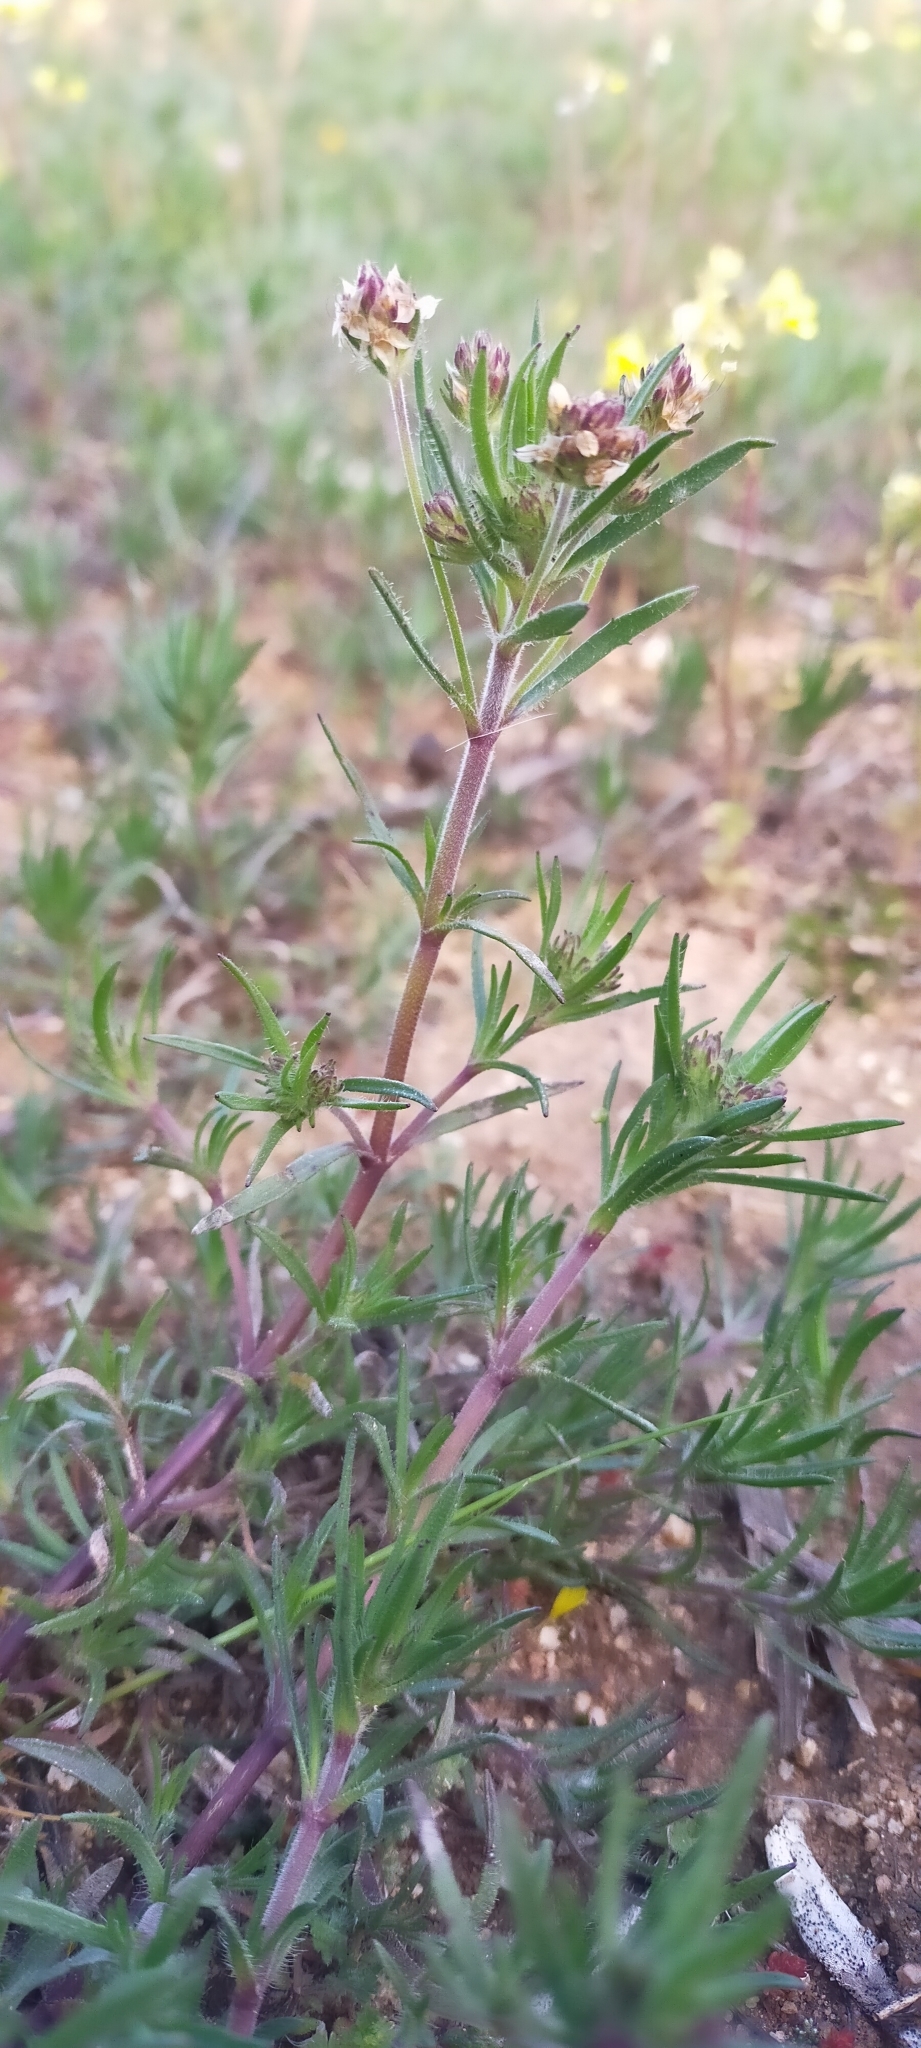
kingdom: Plantae
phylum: Tracheophyta
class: Magnoliopsida
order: Lamiales
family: Plantaginaceae
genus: Plantago
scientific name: Plantago afra
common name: Glandular plantain
